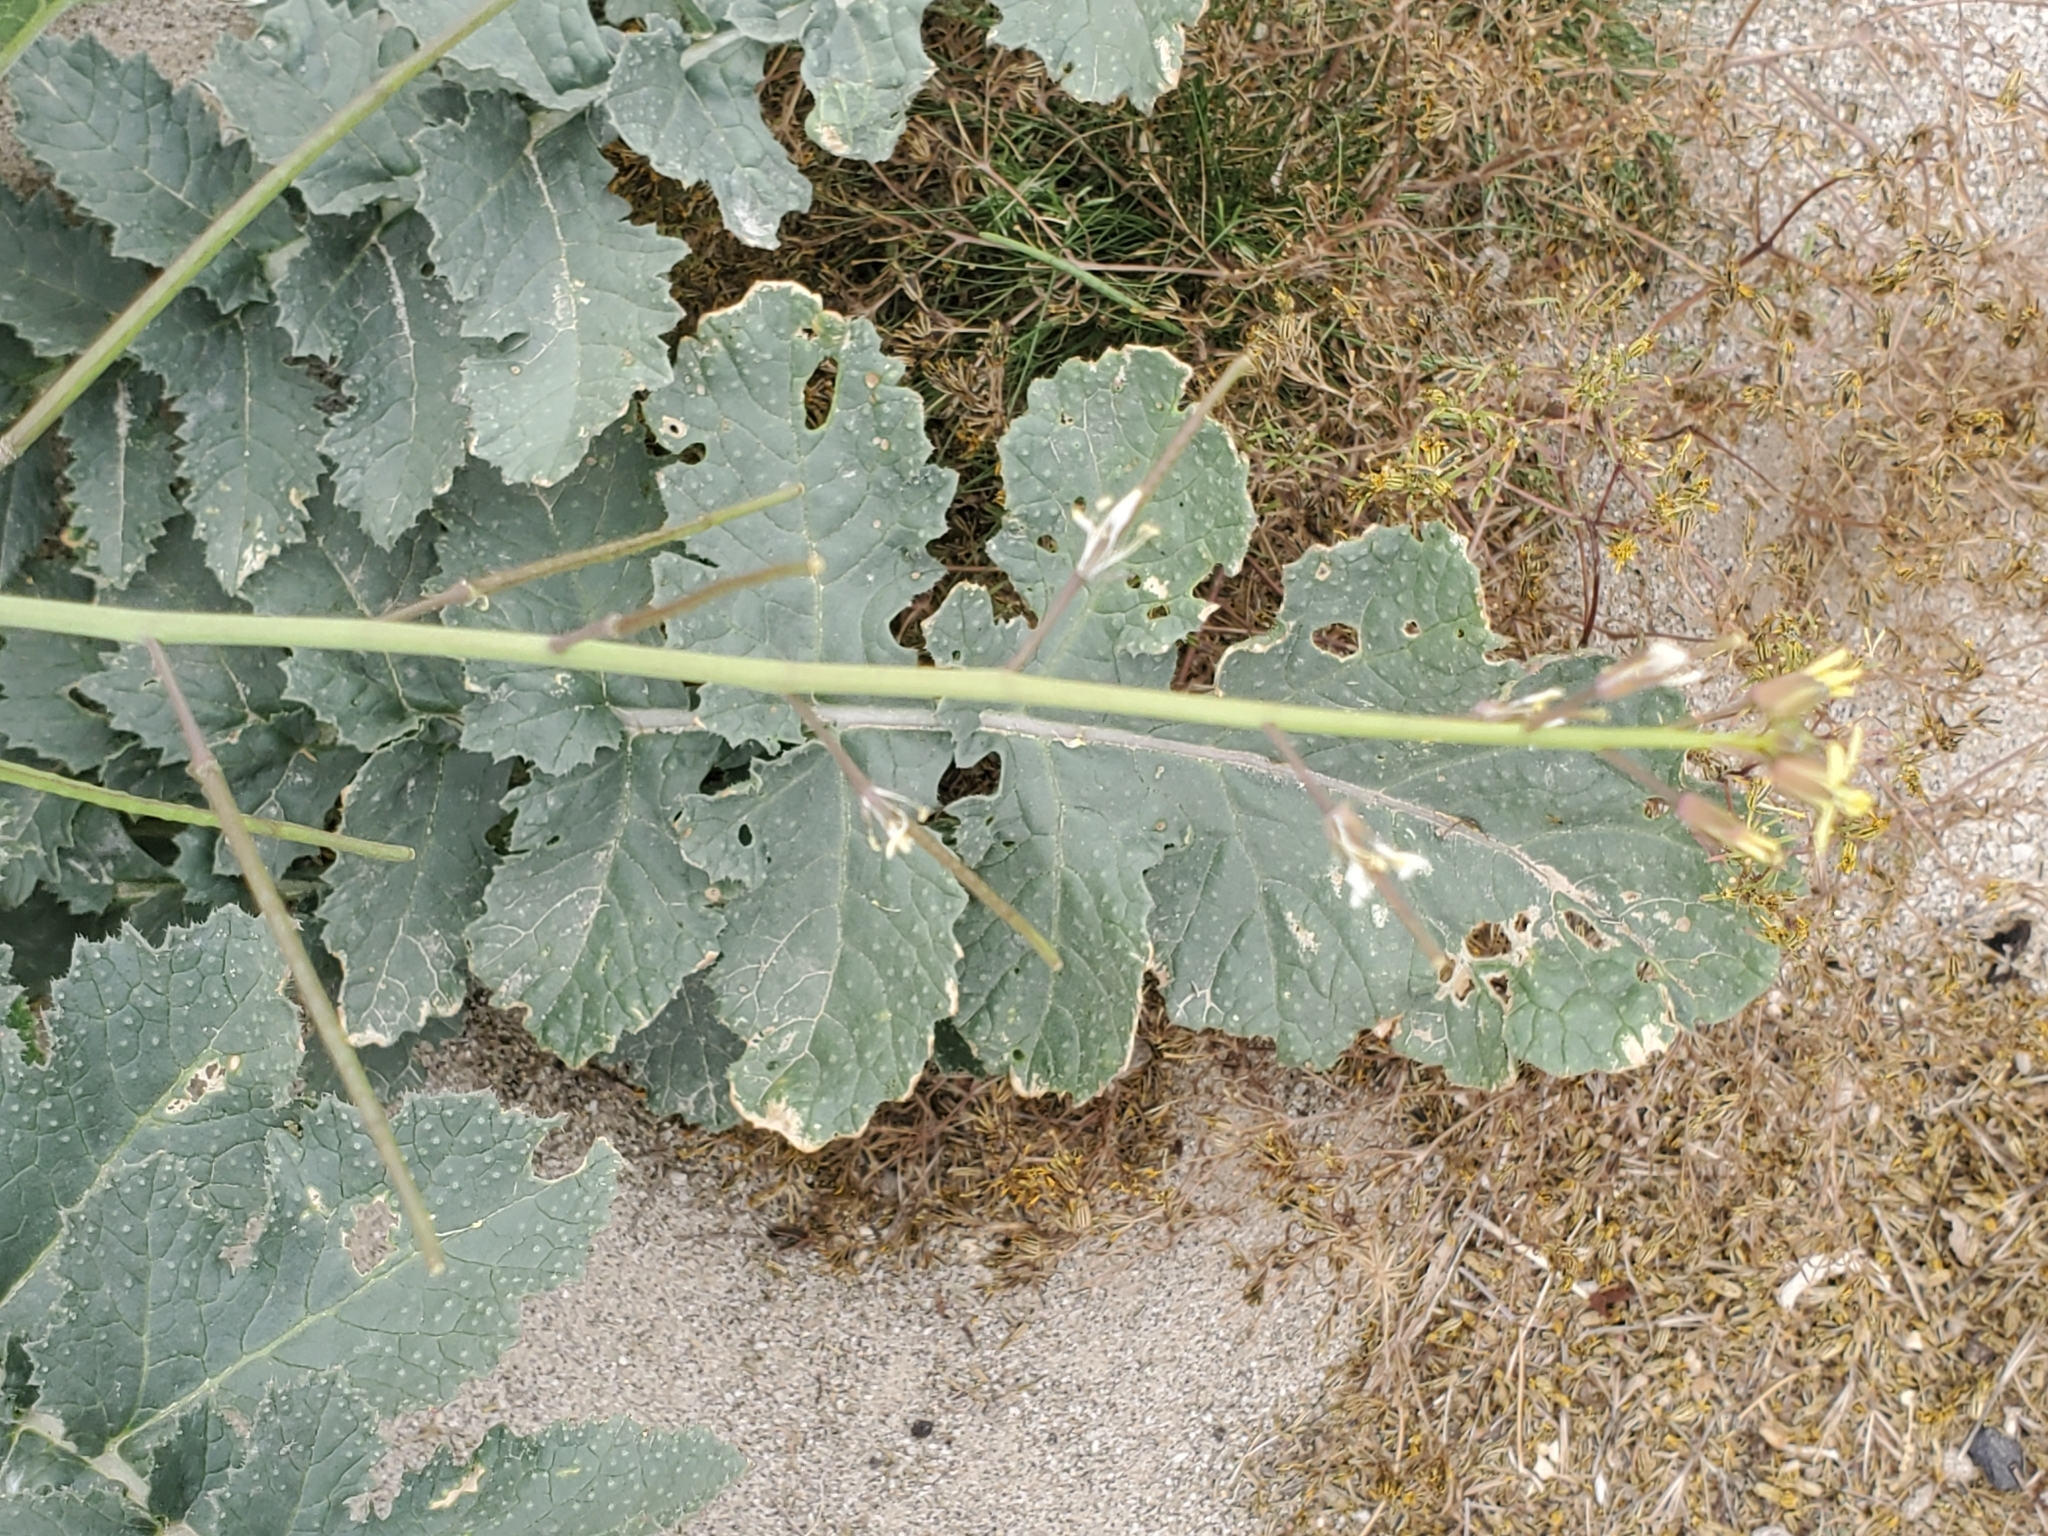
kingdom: Plantae
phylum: Tracheophyta
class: Magnoliopsida
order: Brassicales
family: Brassicaceae
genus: Brassica
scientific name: Brassica tournefortii
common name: Pale cabbage
